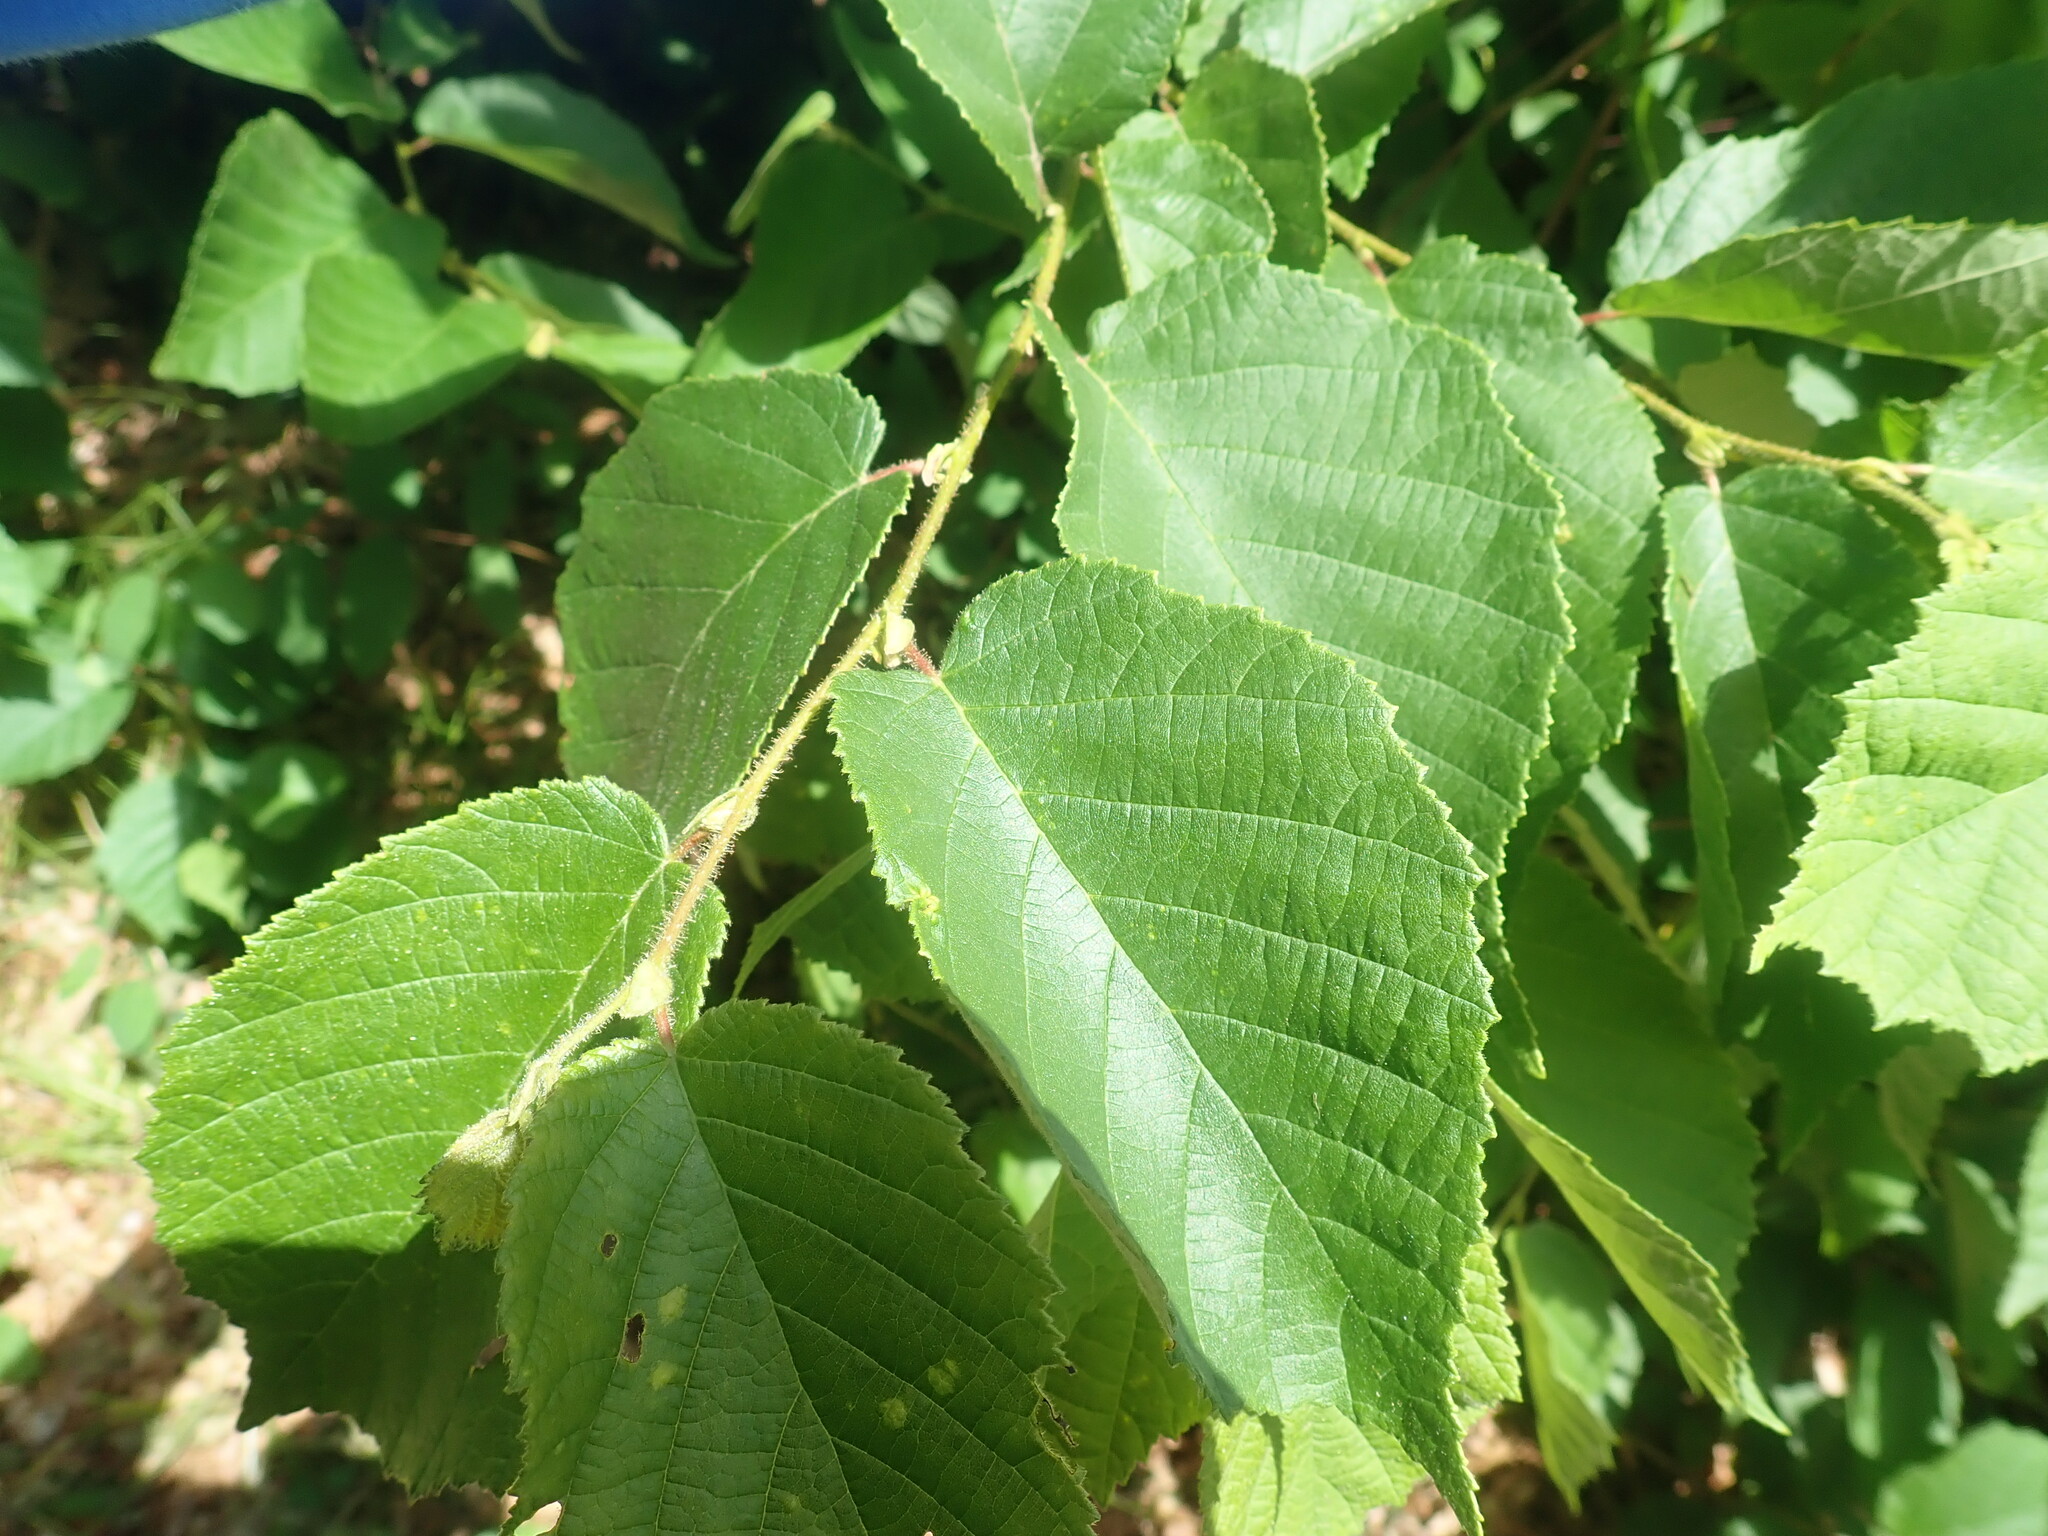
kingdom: Plantae
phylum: Tracheophyta
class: Magnoliopsida
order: Fagales
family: Betulaceae
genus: Corylus
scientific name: Corylus americana
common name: American hazel
